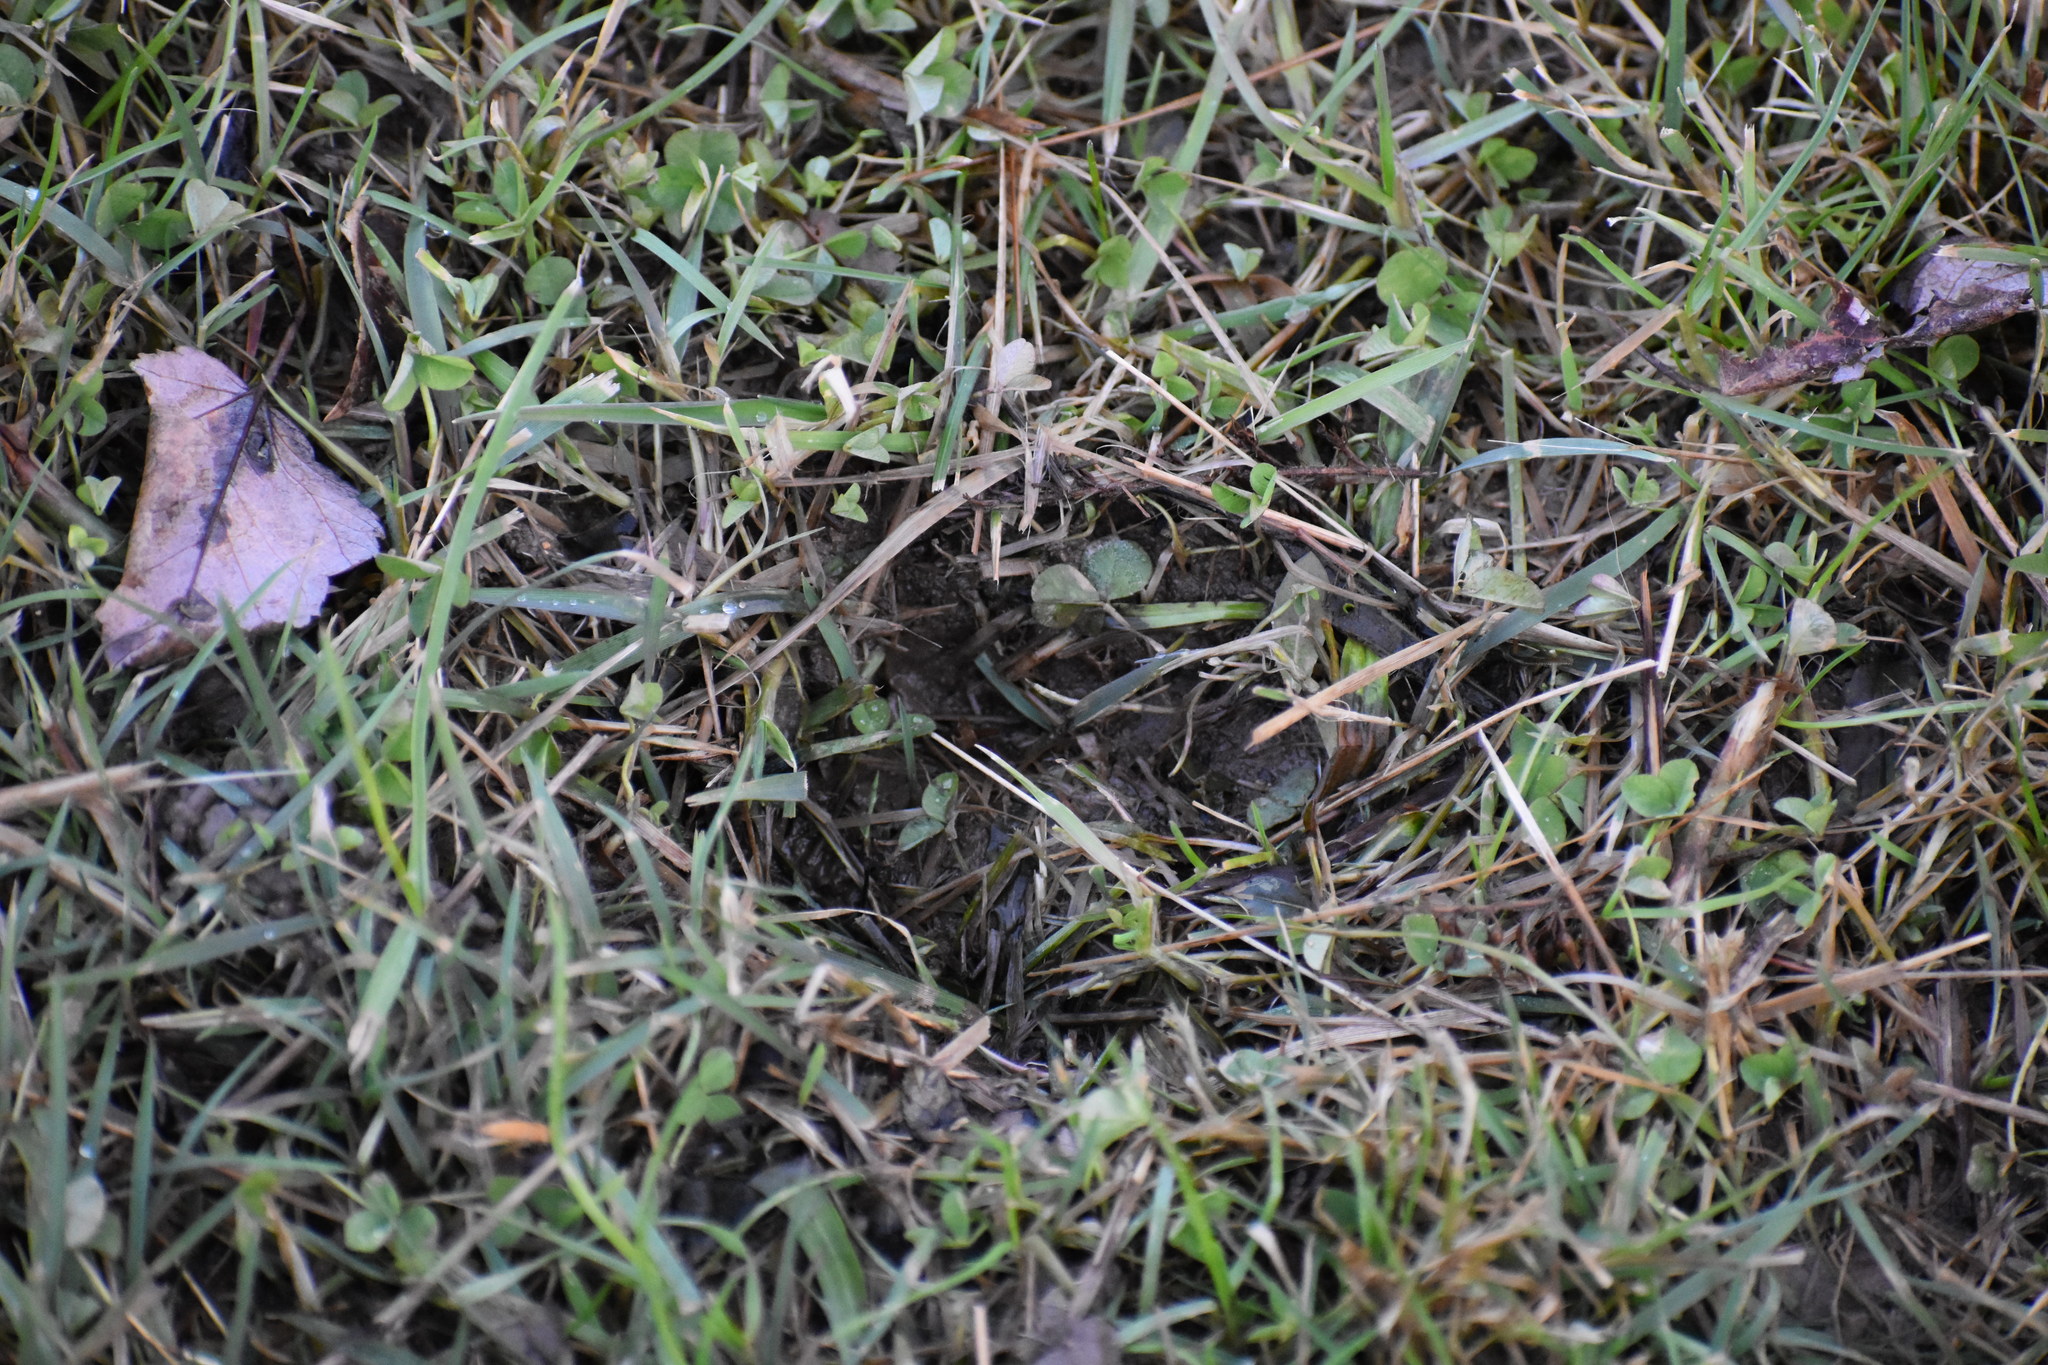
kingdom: Animalia
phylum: Chordata
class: Mammalia
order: Artiodactyla
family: Cervidae
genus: Odocoileus
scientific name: Odocoileus virginianus
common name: White-tailed deer
